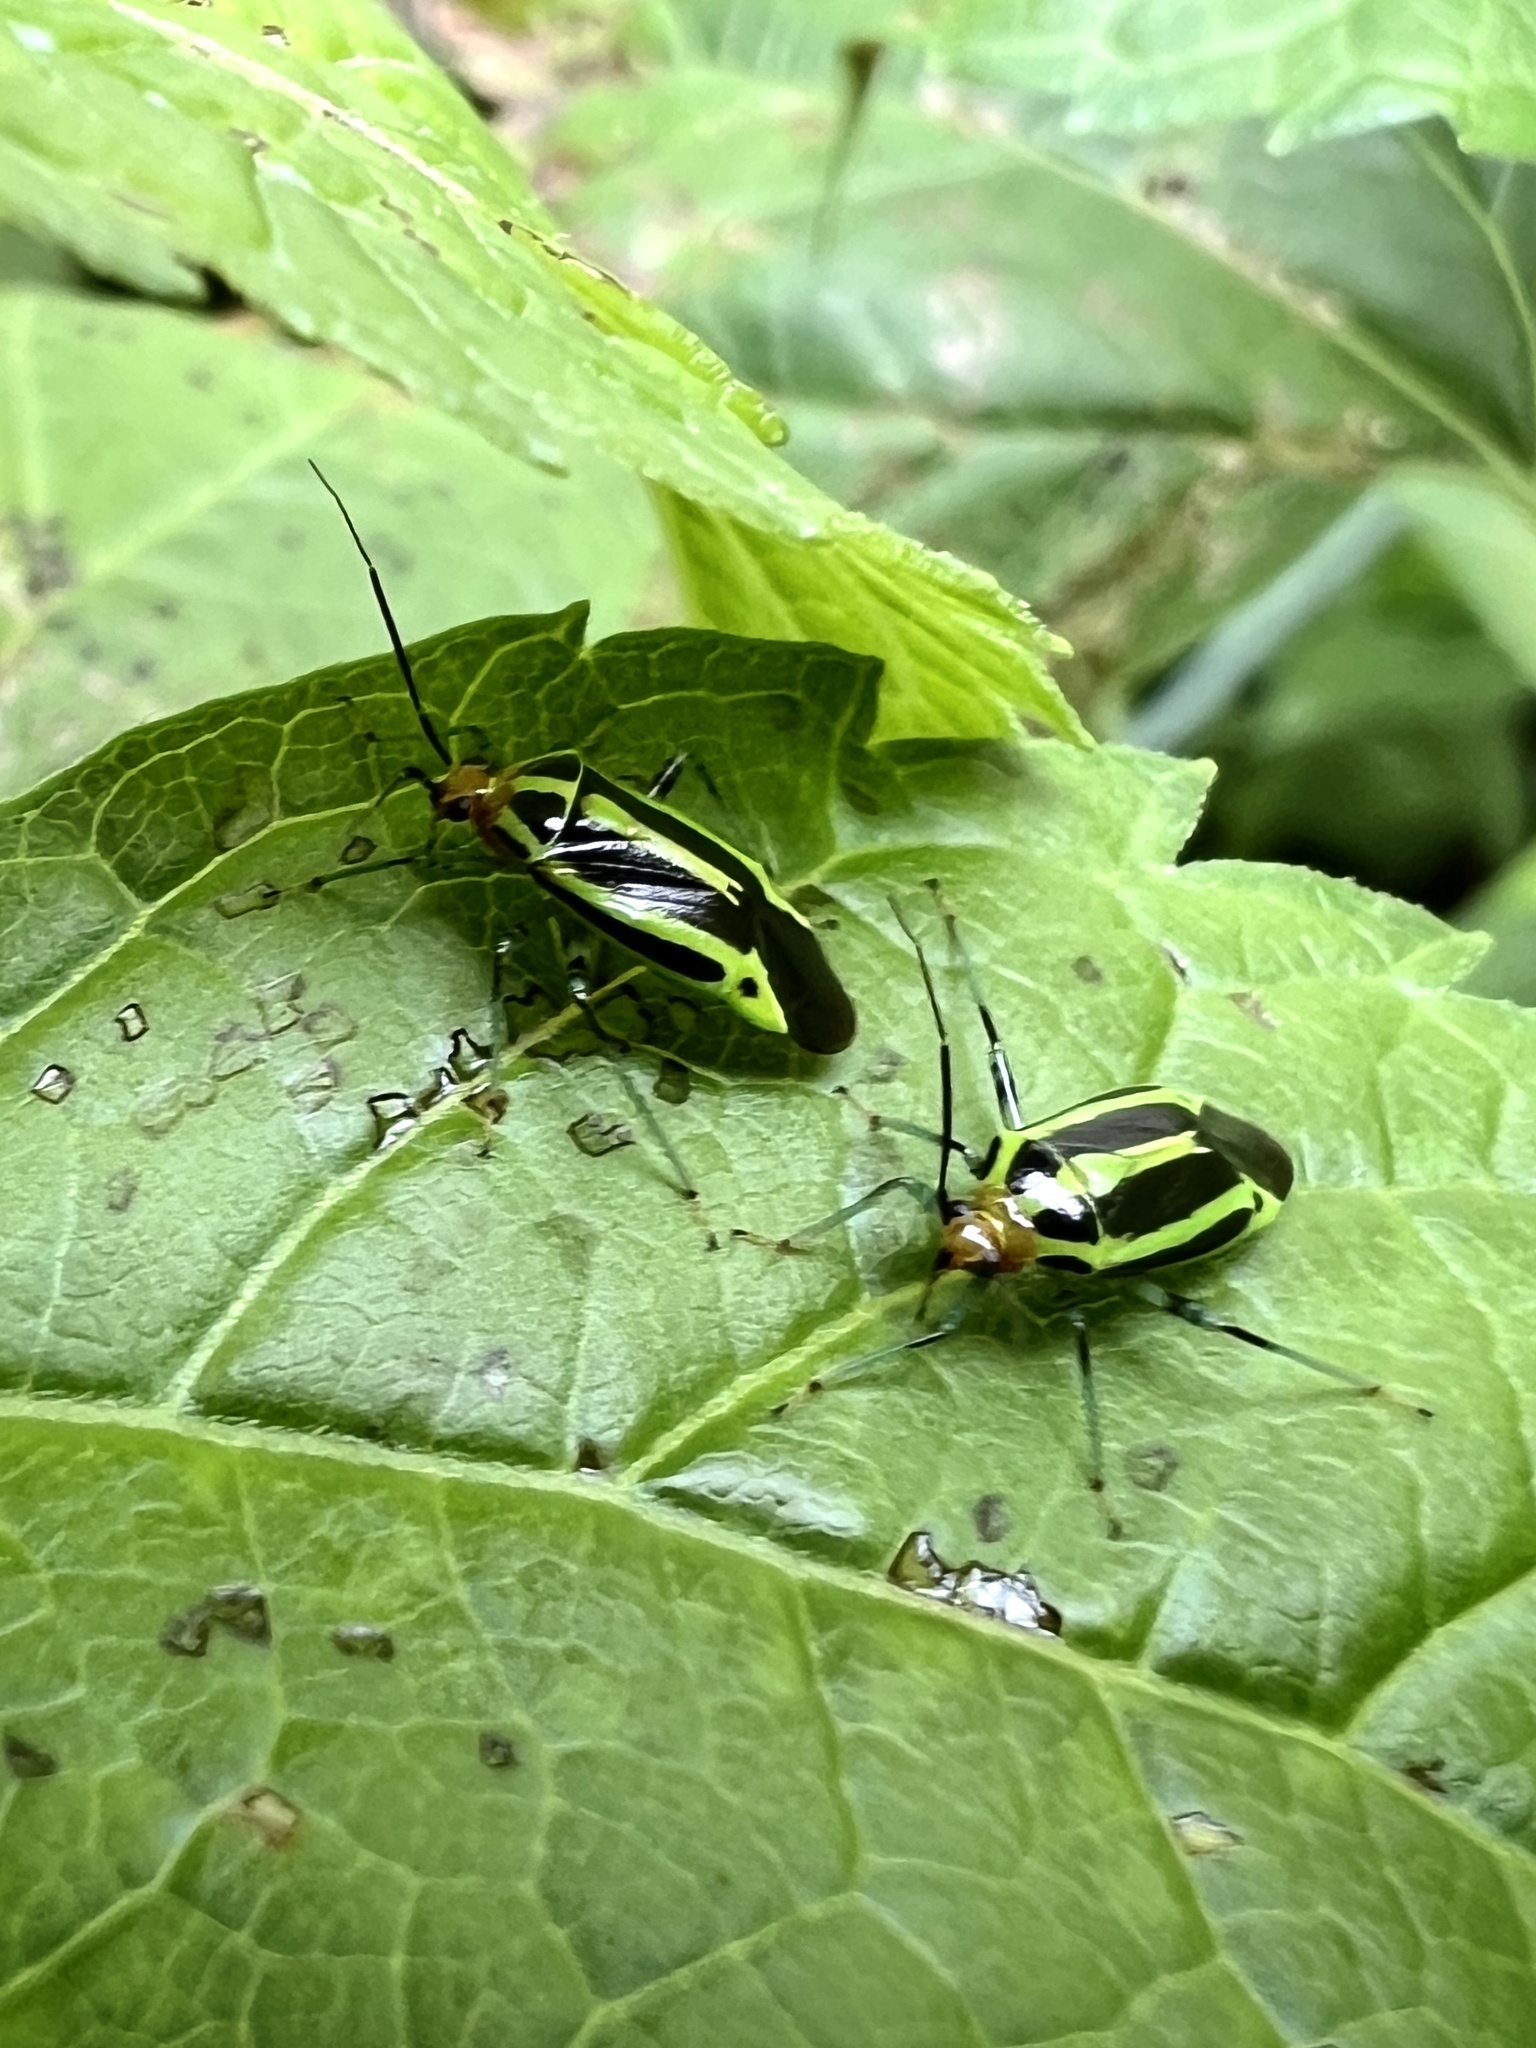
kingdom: Animalia
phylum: Arthropoda
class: Insecta
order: Hemiptera
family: Miridae
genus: Poecilocapsus
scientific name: Poecilocapsus lineatus
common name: Four-lined plant bug
